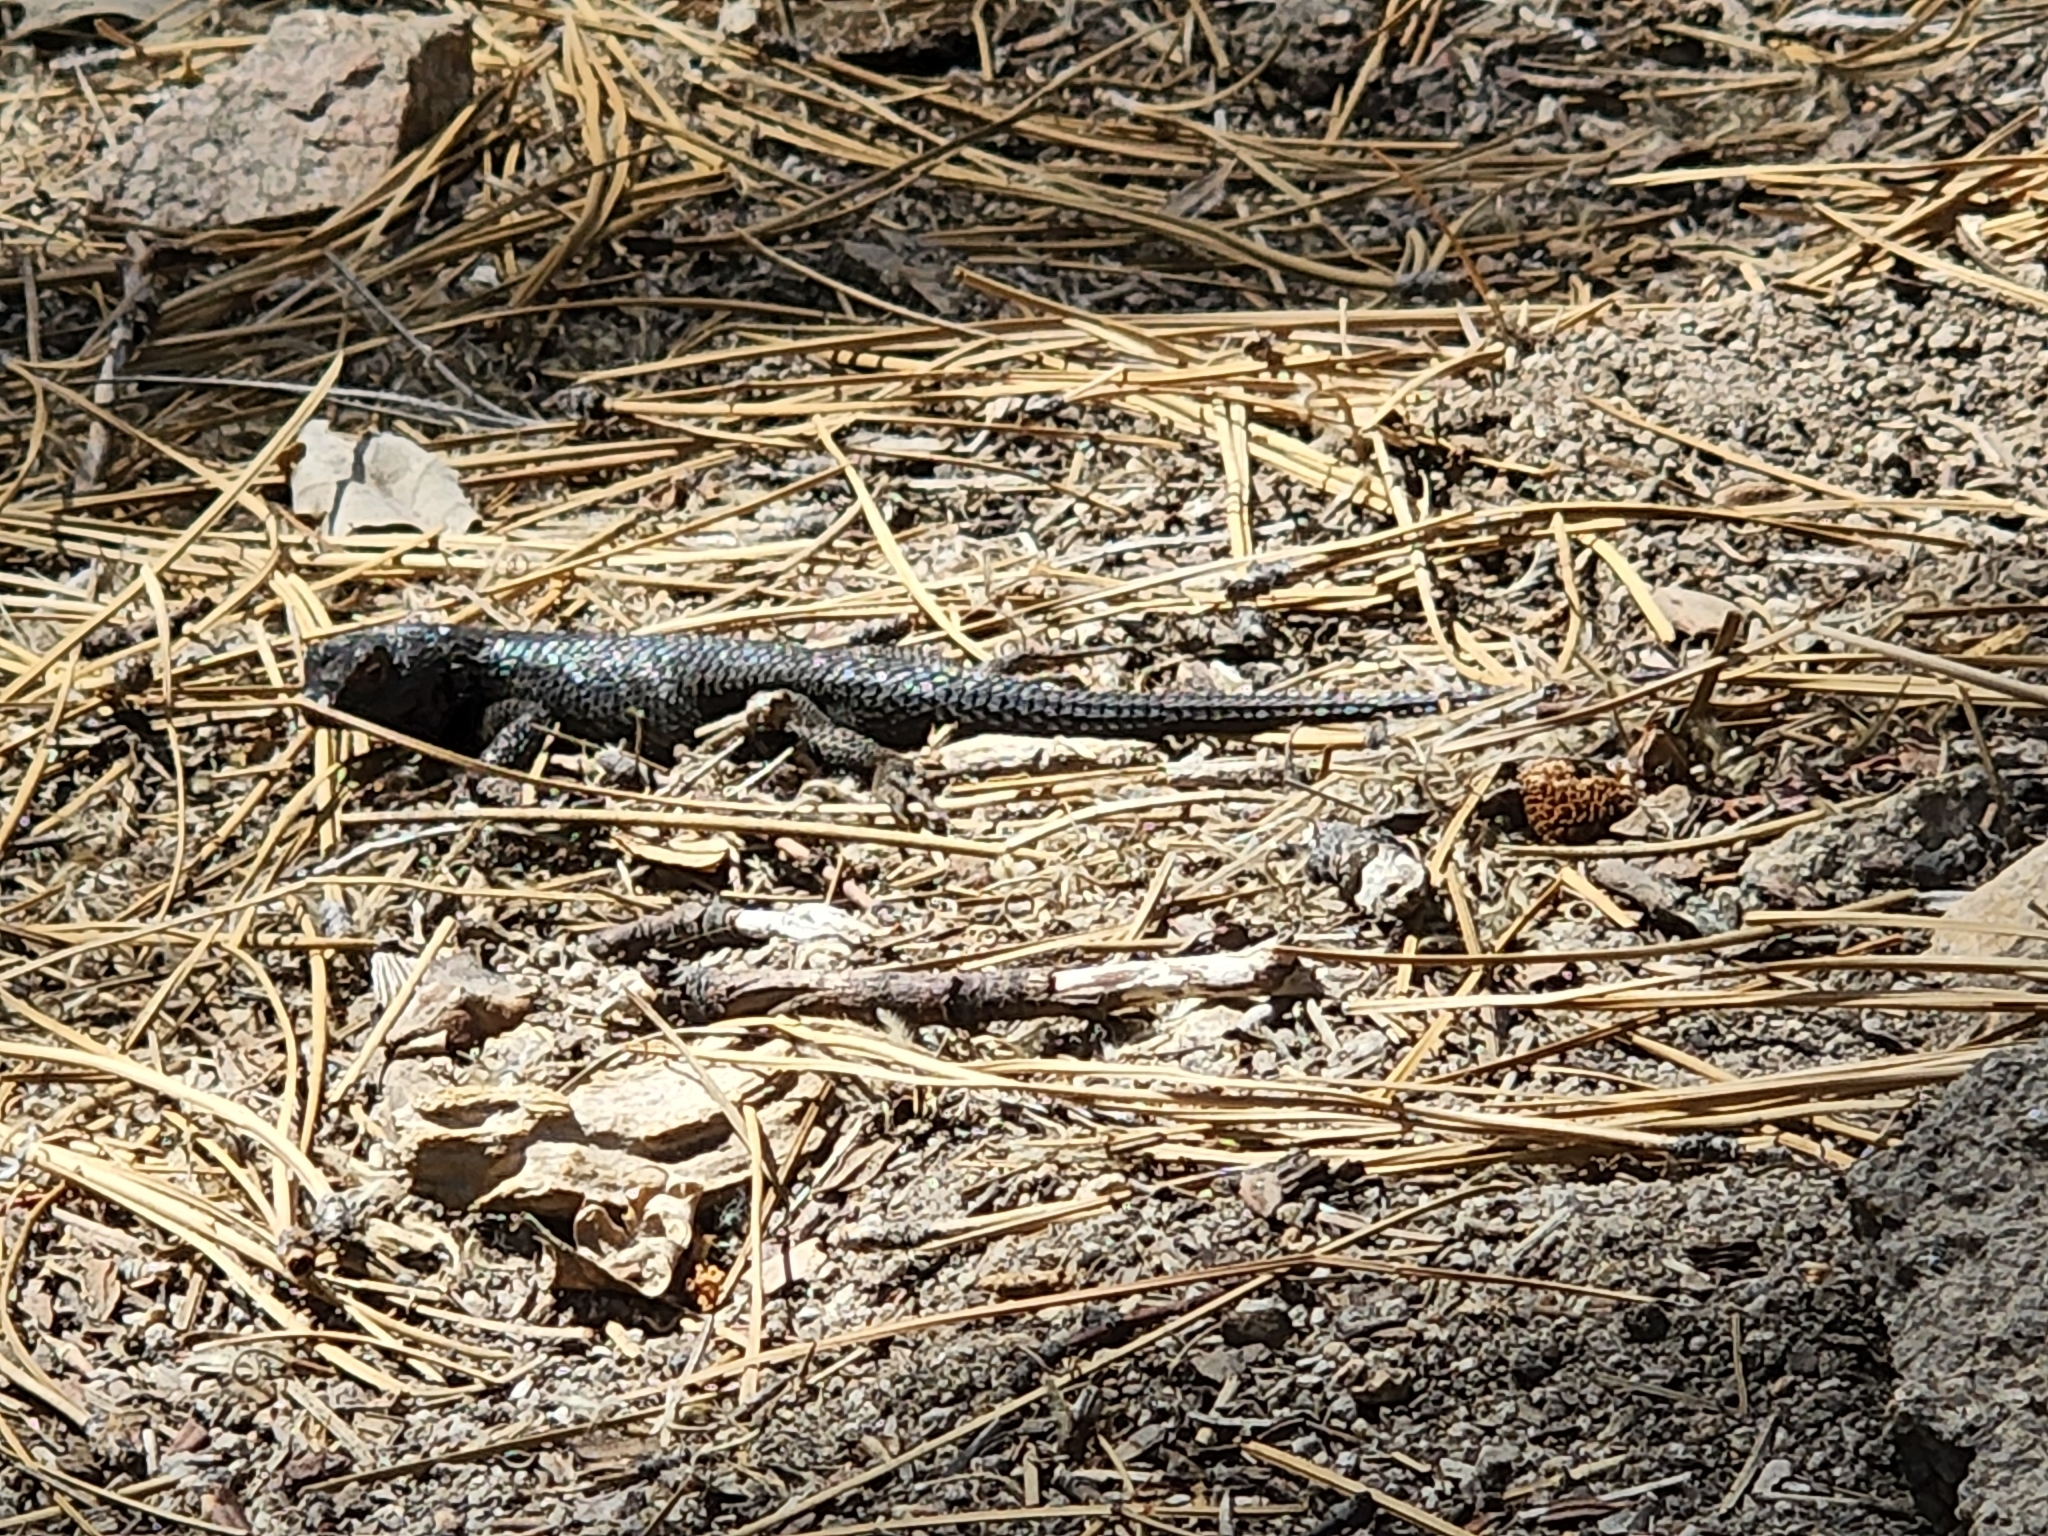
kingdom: Animalia
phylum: Chordata
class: Squamata
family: Phrynosomatidae
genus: Sceloporus
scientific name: Sceloporus occidentalis
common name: Western fence lizard
